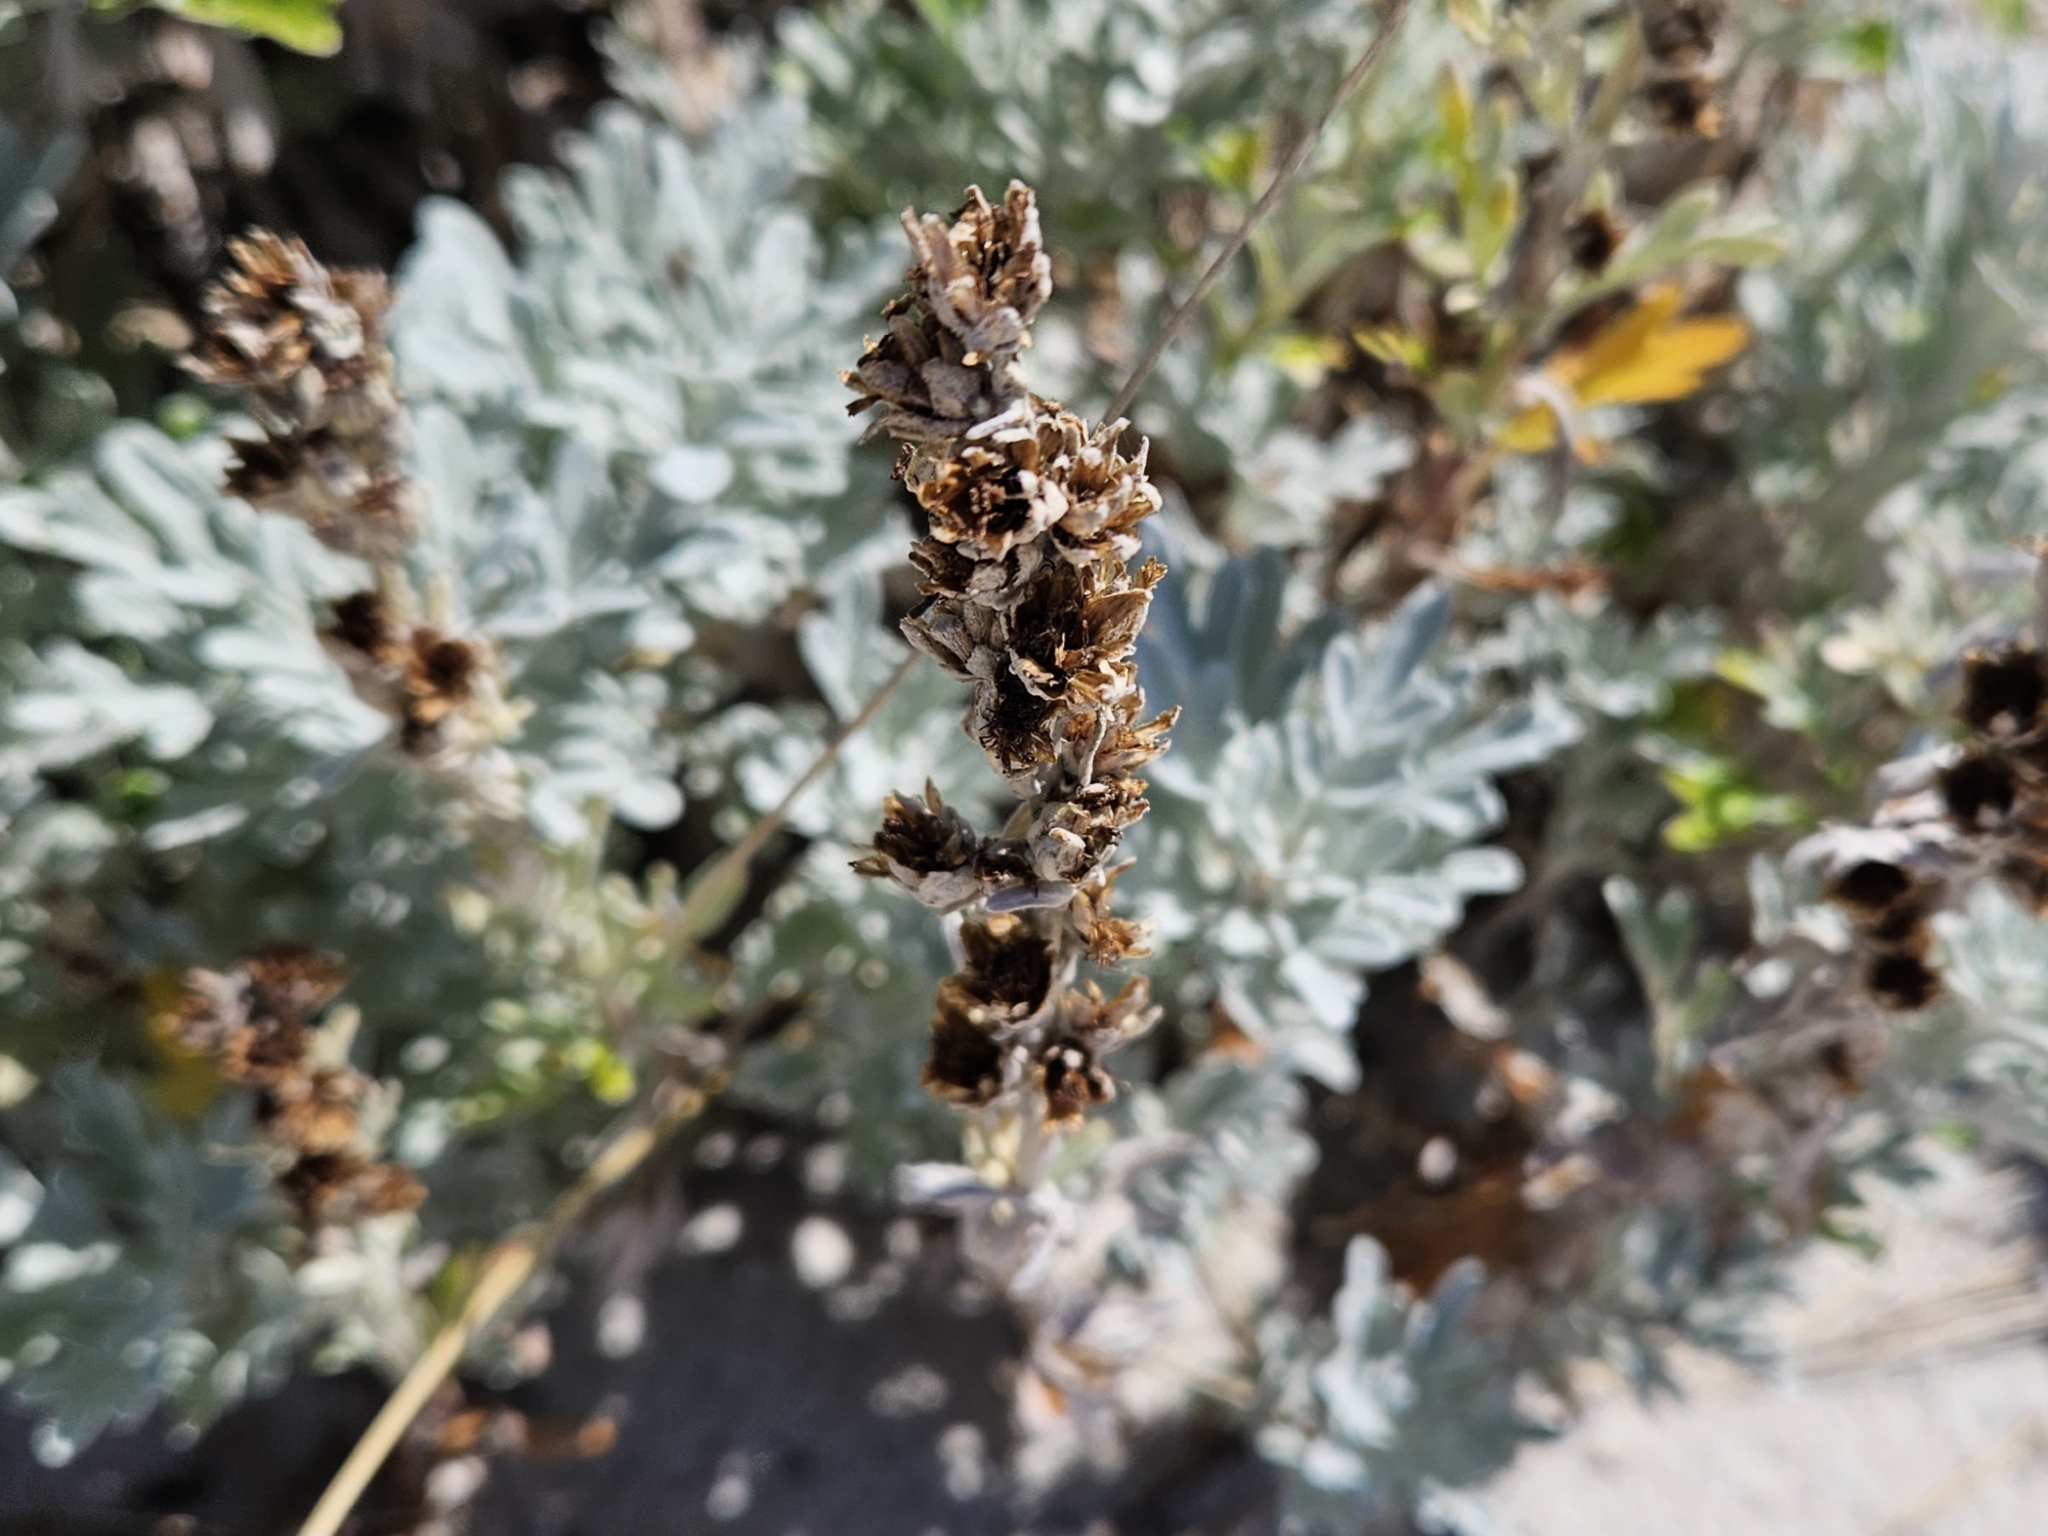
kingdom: Plantae
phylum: Tracheophyta
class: Magnoliopsida
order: Asterales
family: Asteraceae
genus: Artemisia
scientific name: Artemisia stelleriana
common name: Beach wormwood
